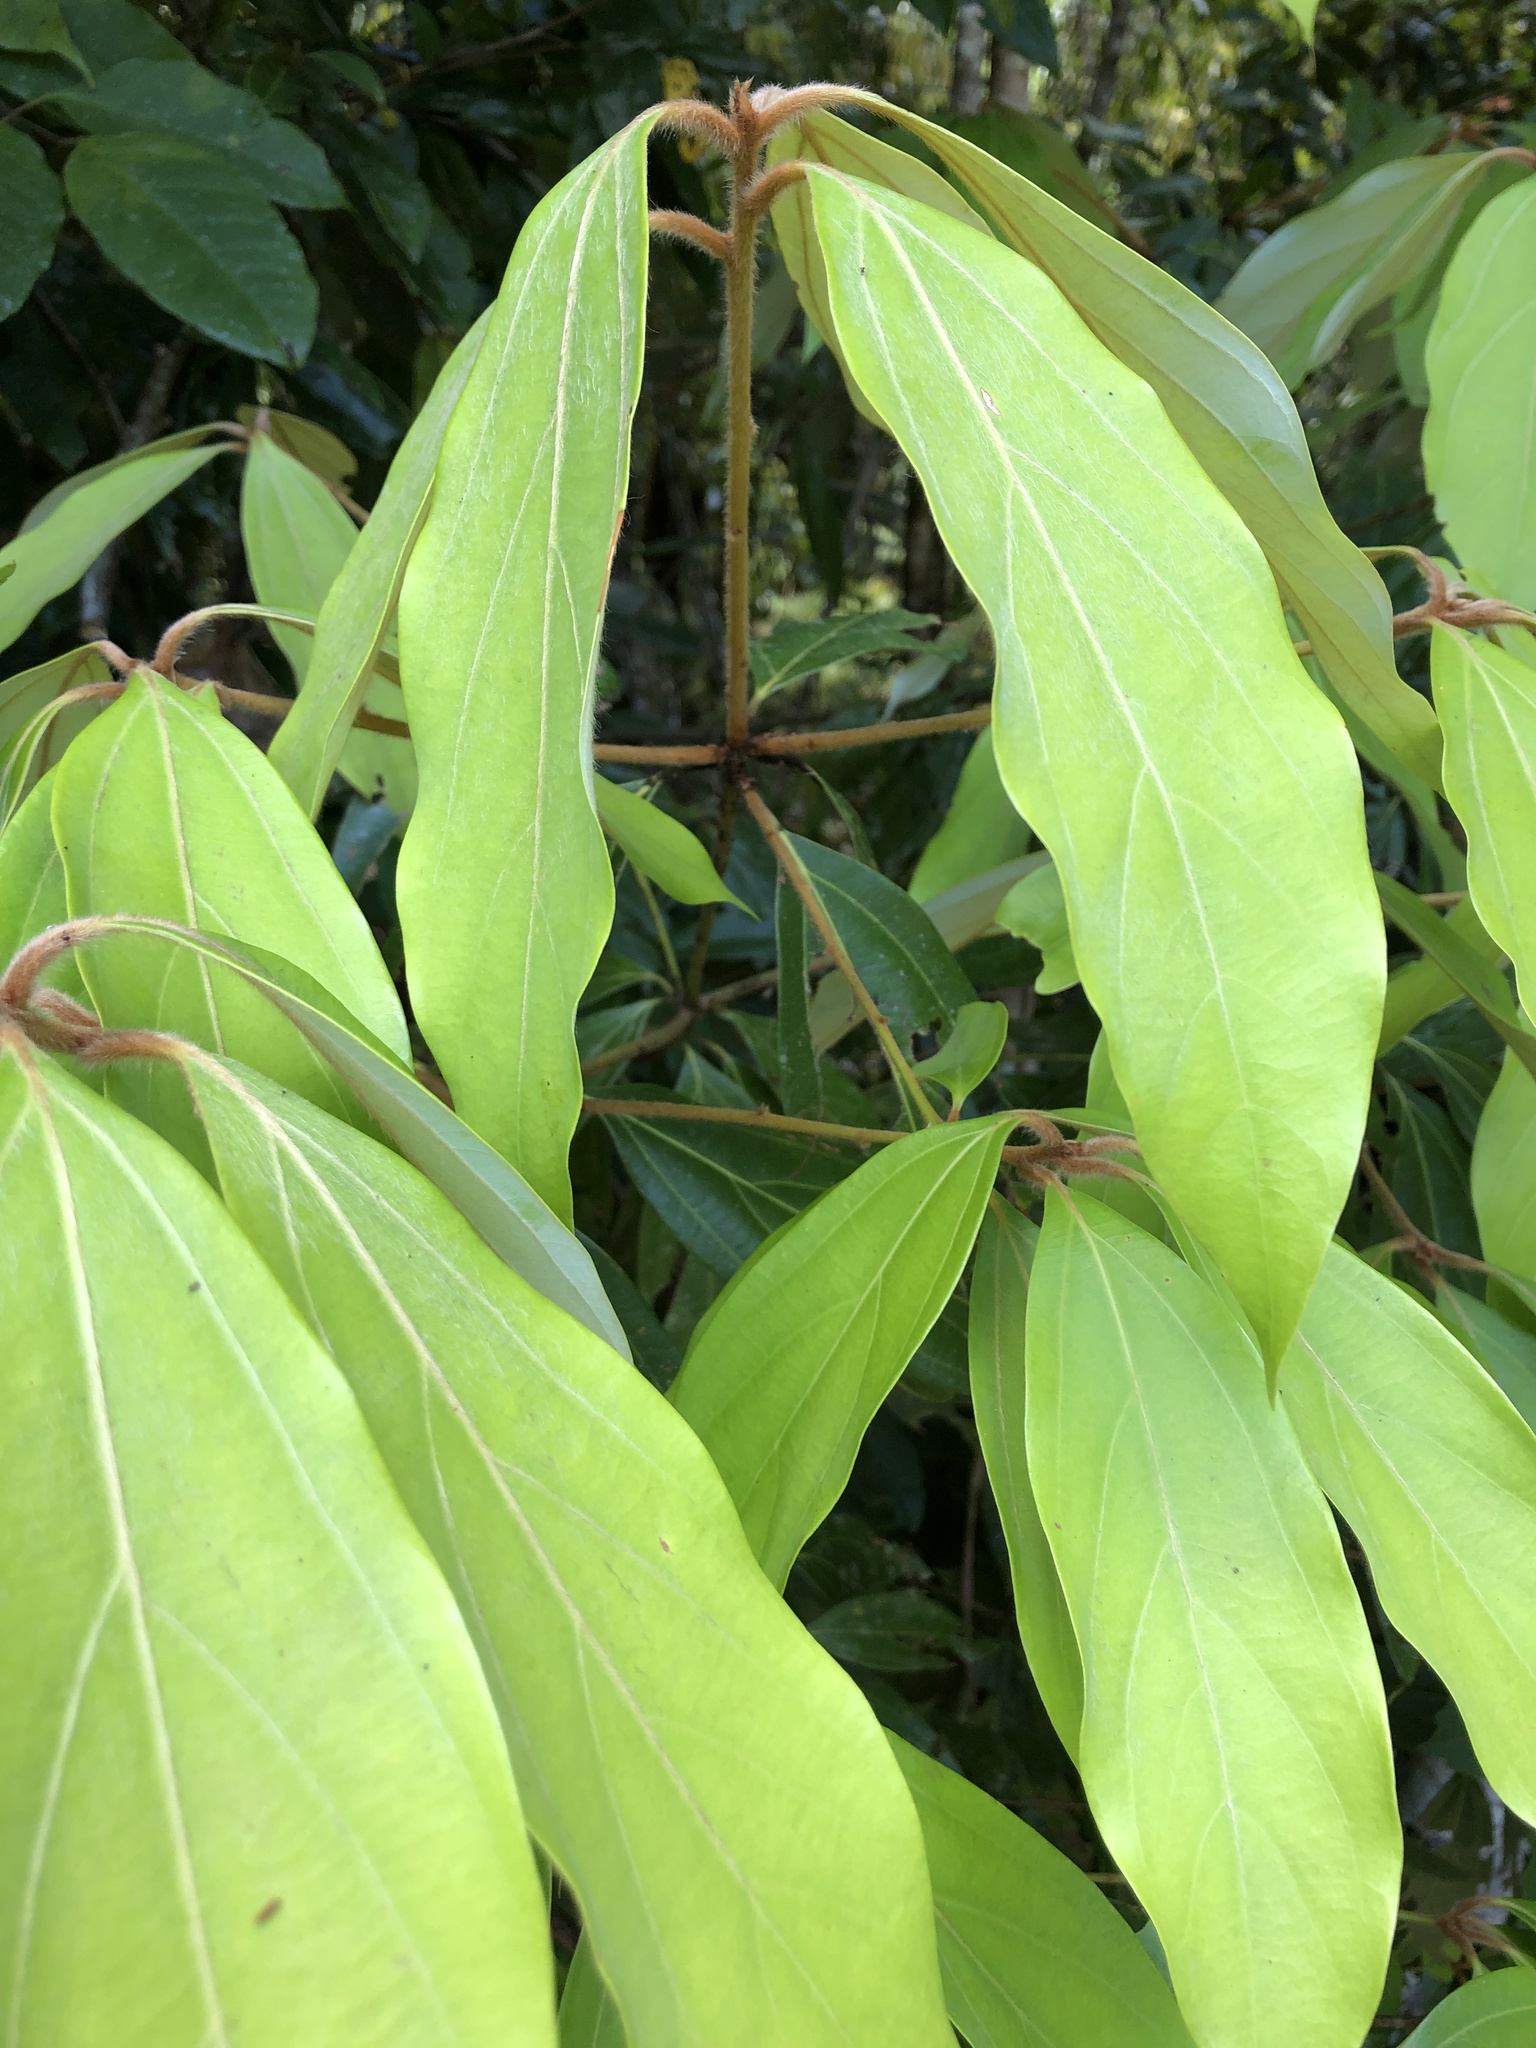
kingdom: Plantae
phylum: Tracheophyta
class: Magnoliopsida
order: Laurales
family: Lauraceae
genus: Neolitsea
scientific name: Neolitsea dealbata
